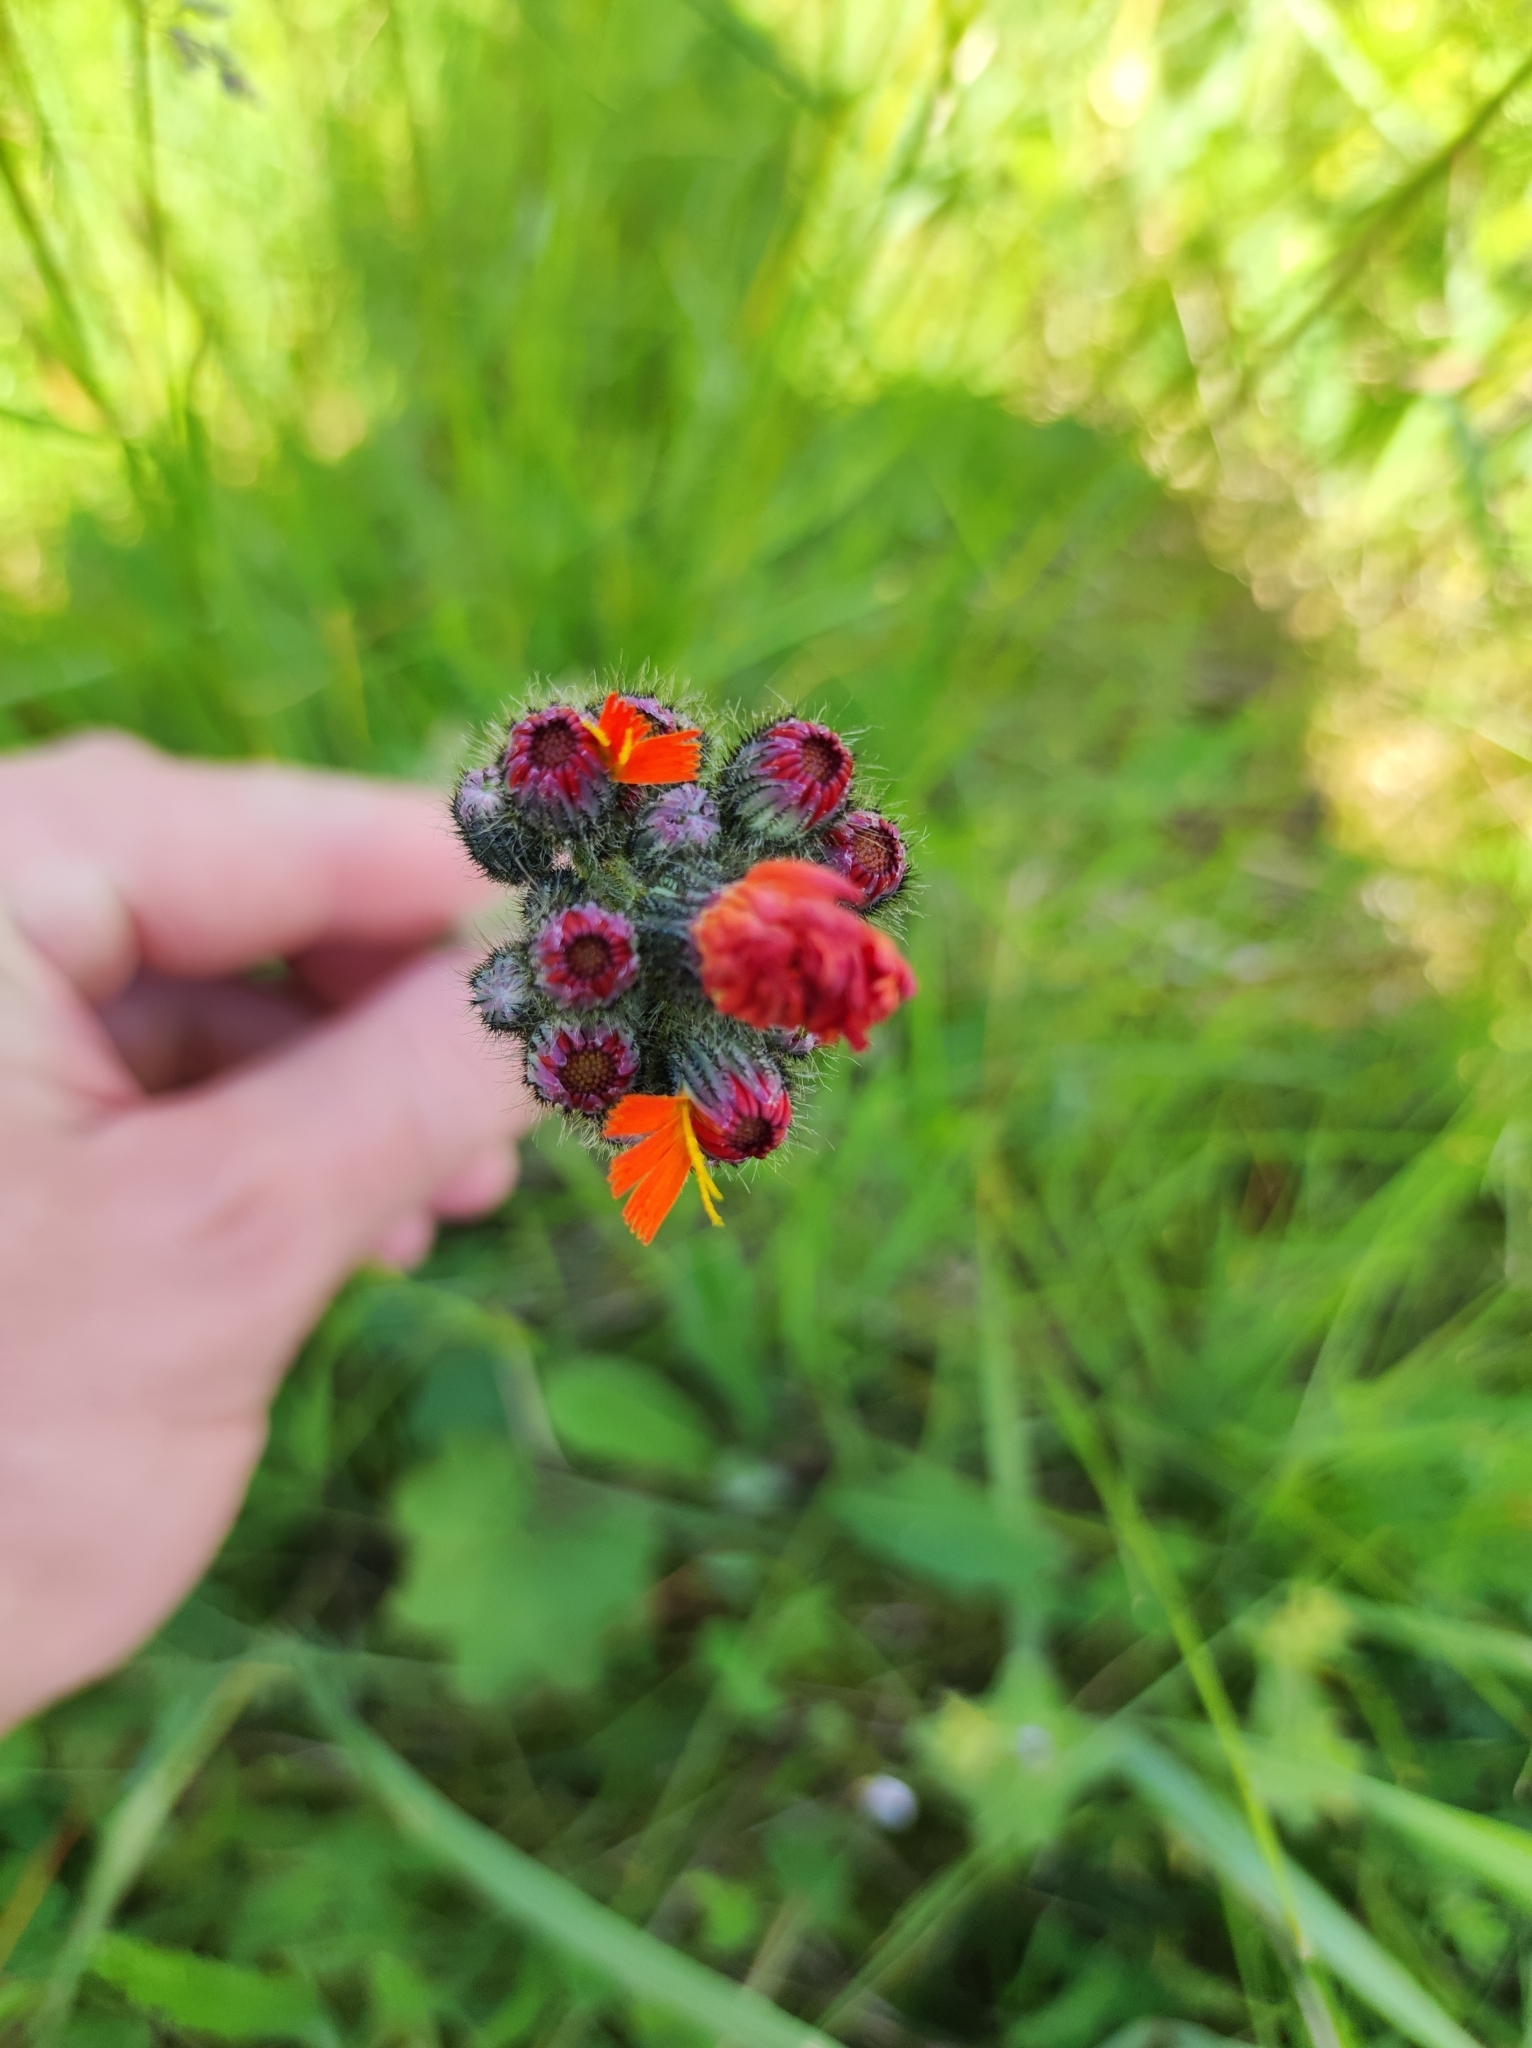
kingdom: Plantae
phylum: Tracheophyta
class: Magnoliopsida
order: Asterales
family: Asteraceae
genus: Pilosella
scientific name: Pilosella aurantiaca
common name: Fox-and-cubs
